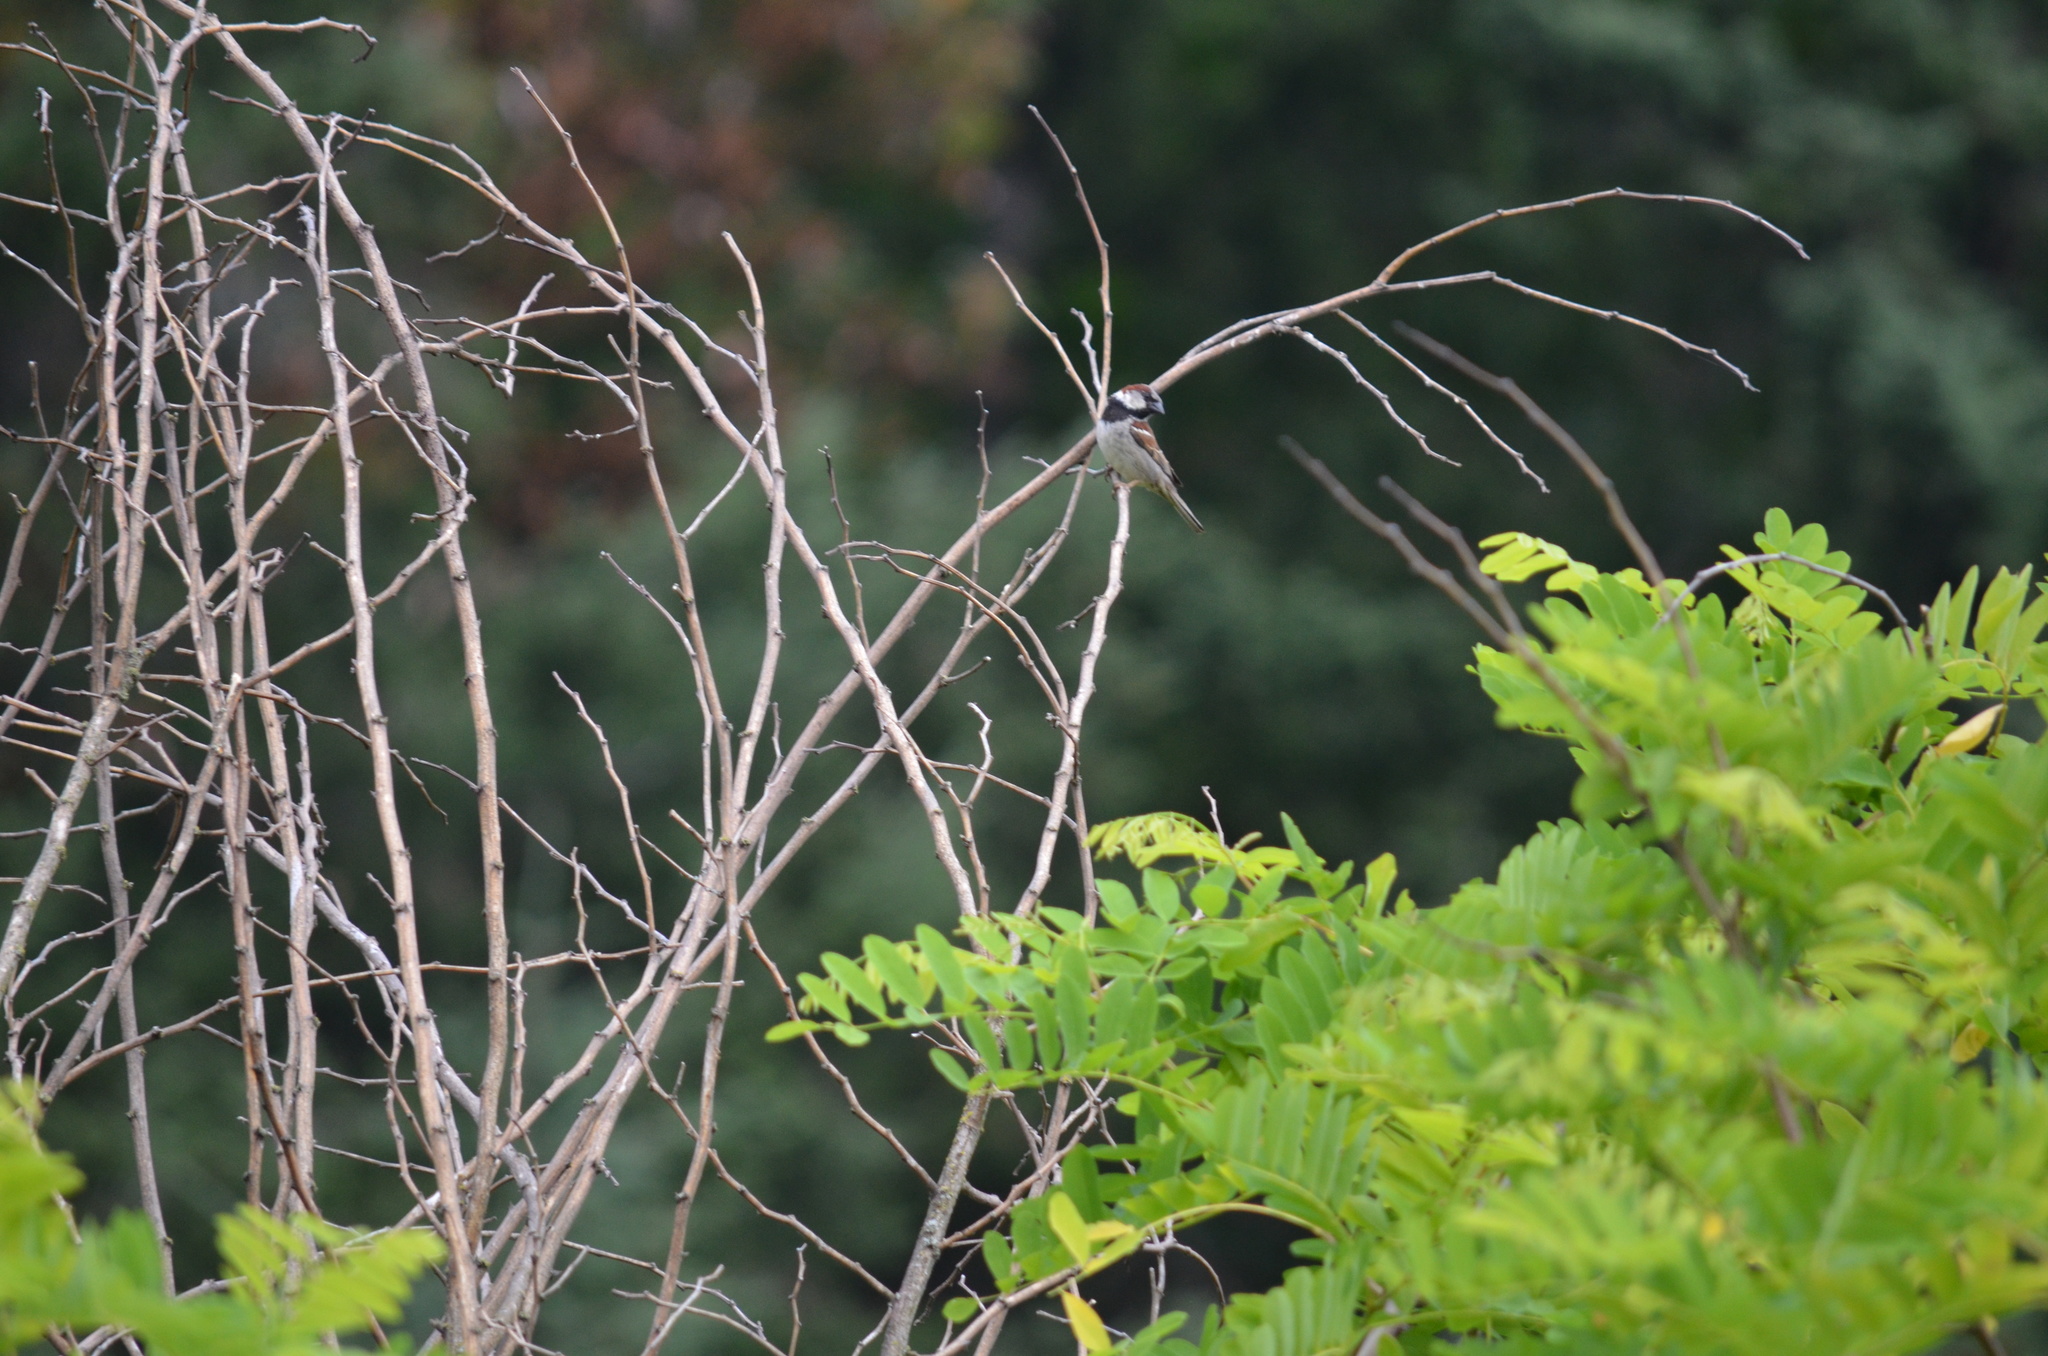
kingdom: Animalia
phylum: Chordata
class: Aves
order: Passeriformes
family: Passeridae
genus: Passer
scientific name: Passer domesticus
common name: House sparrow
